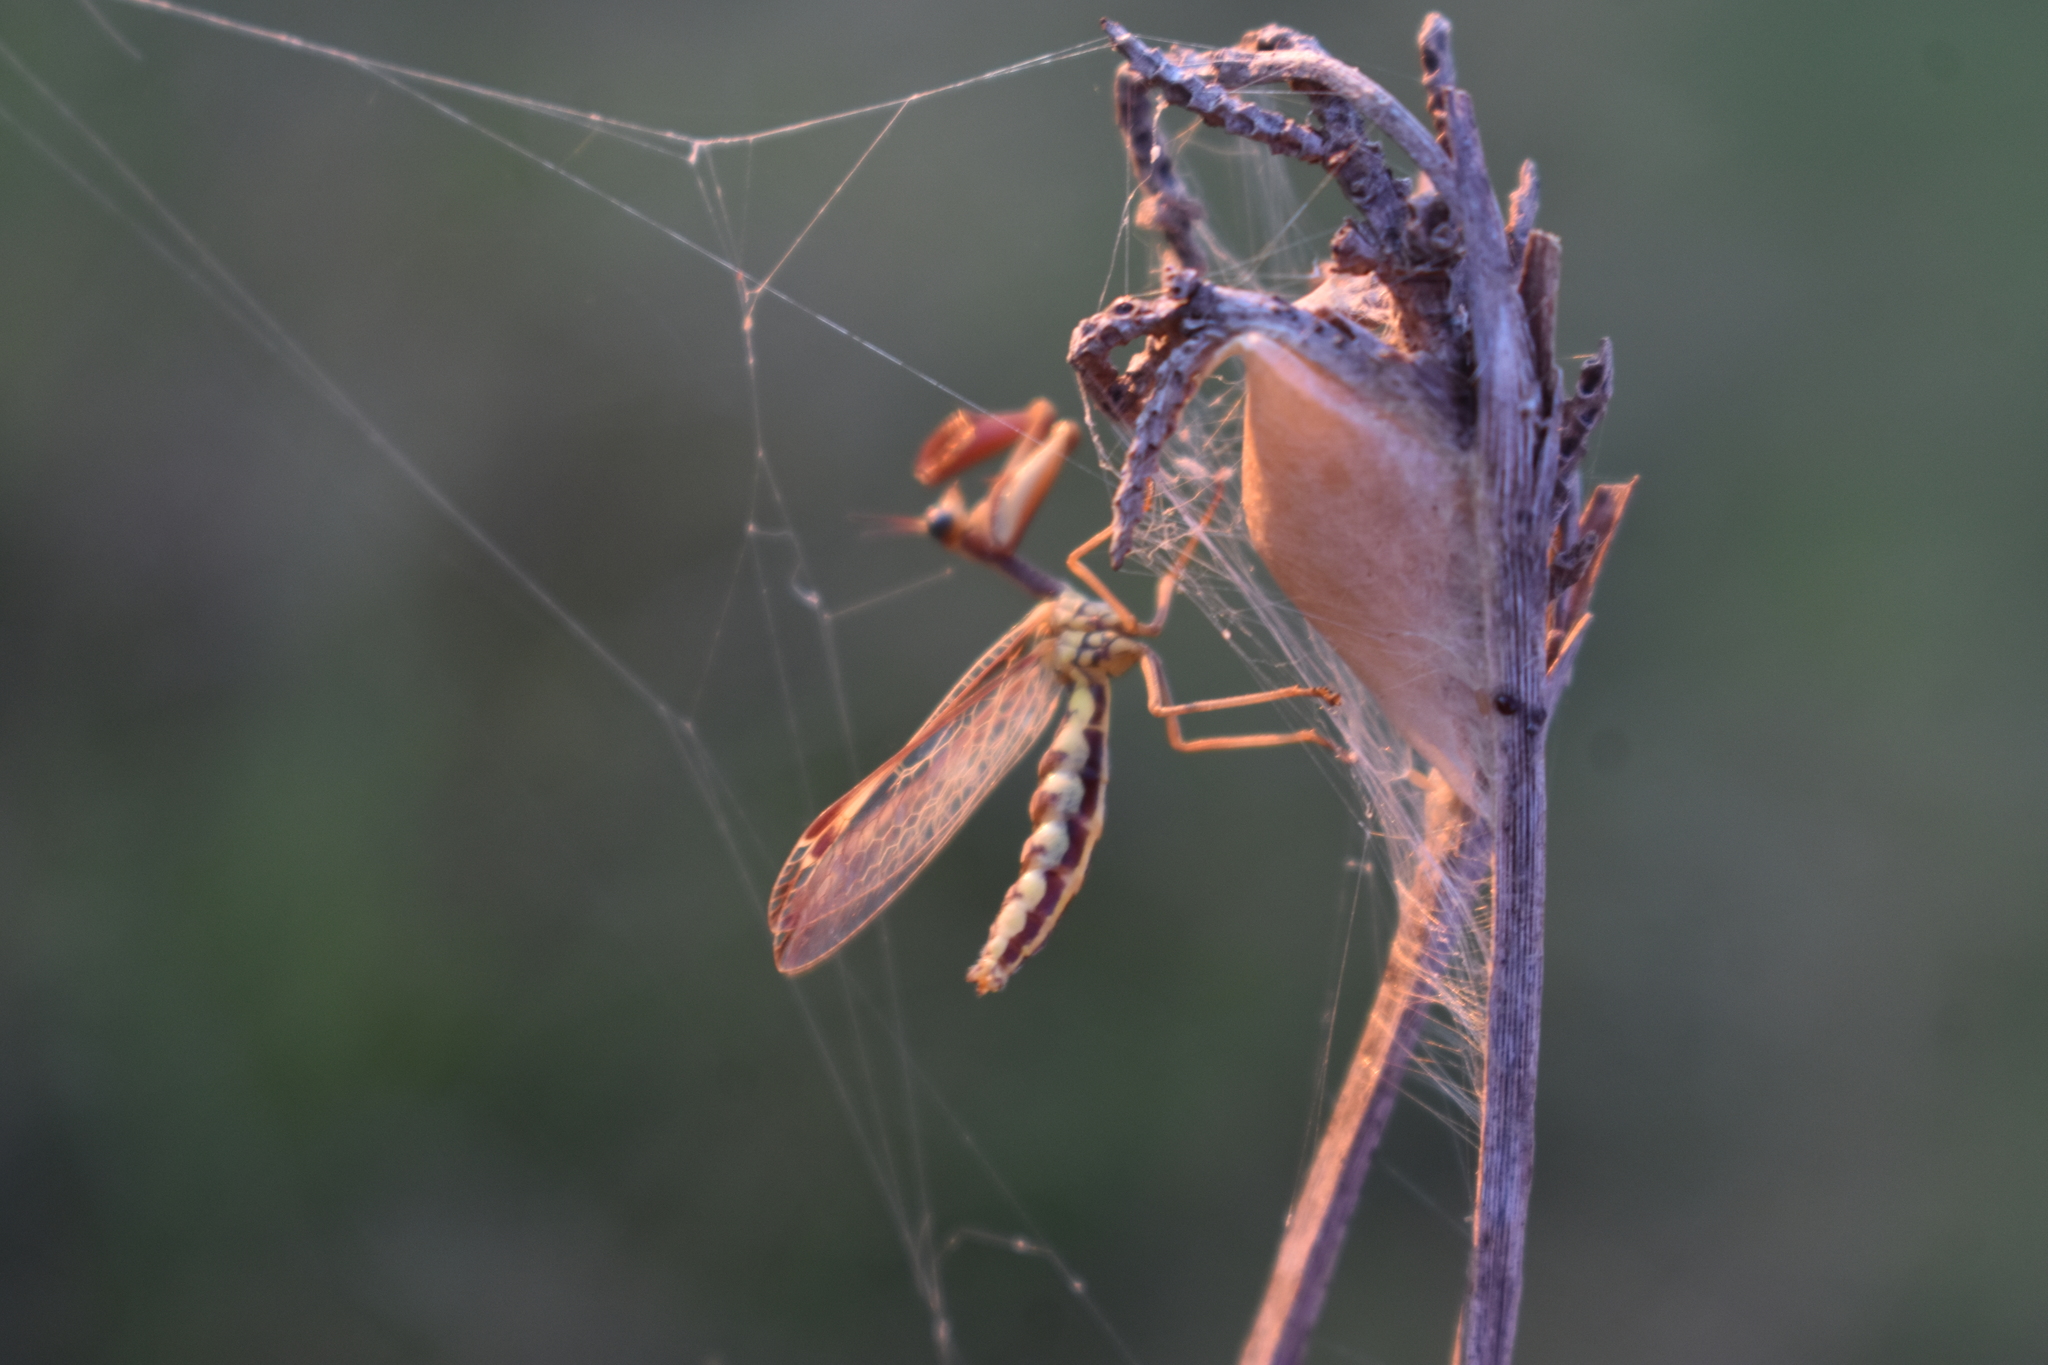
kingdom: Animalia
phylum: Arthropoda
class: Insecta
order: Neuroptera
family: Mantispidae
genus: Paramantispa
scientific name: Paramantispa prolixa
